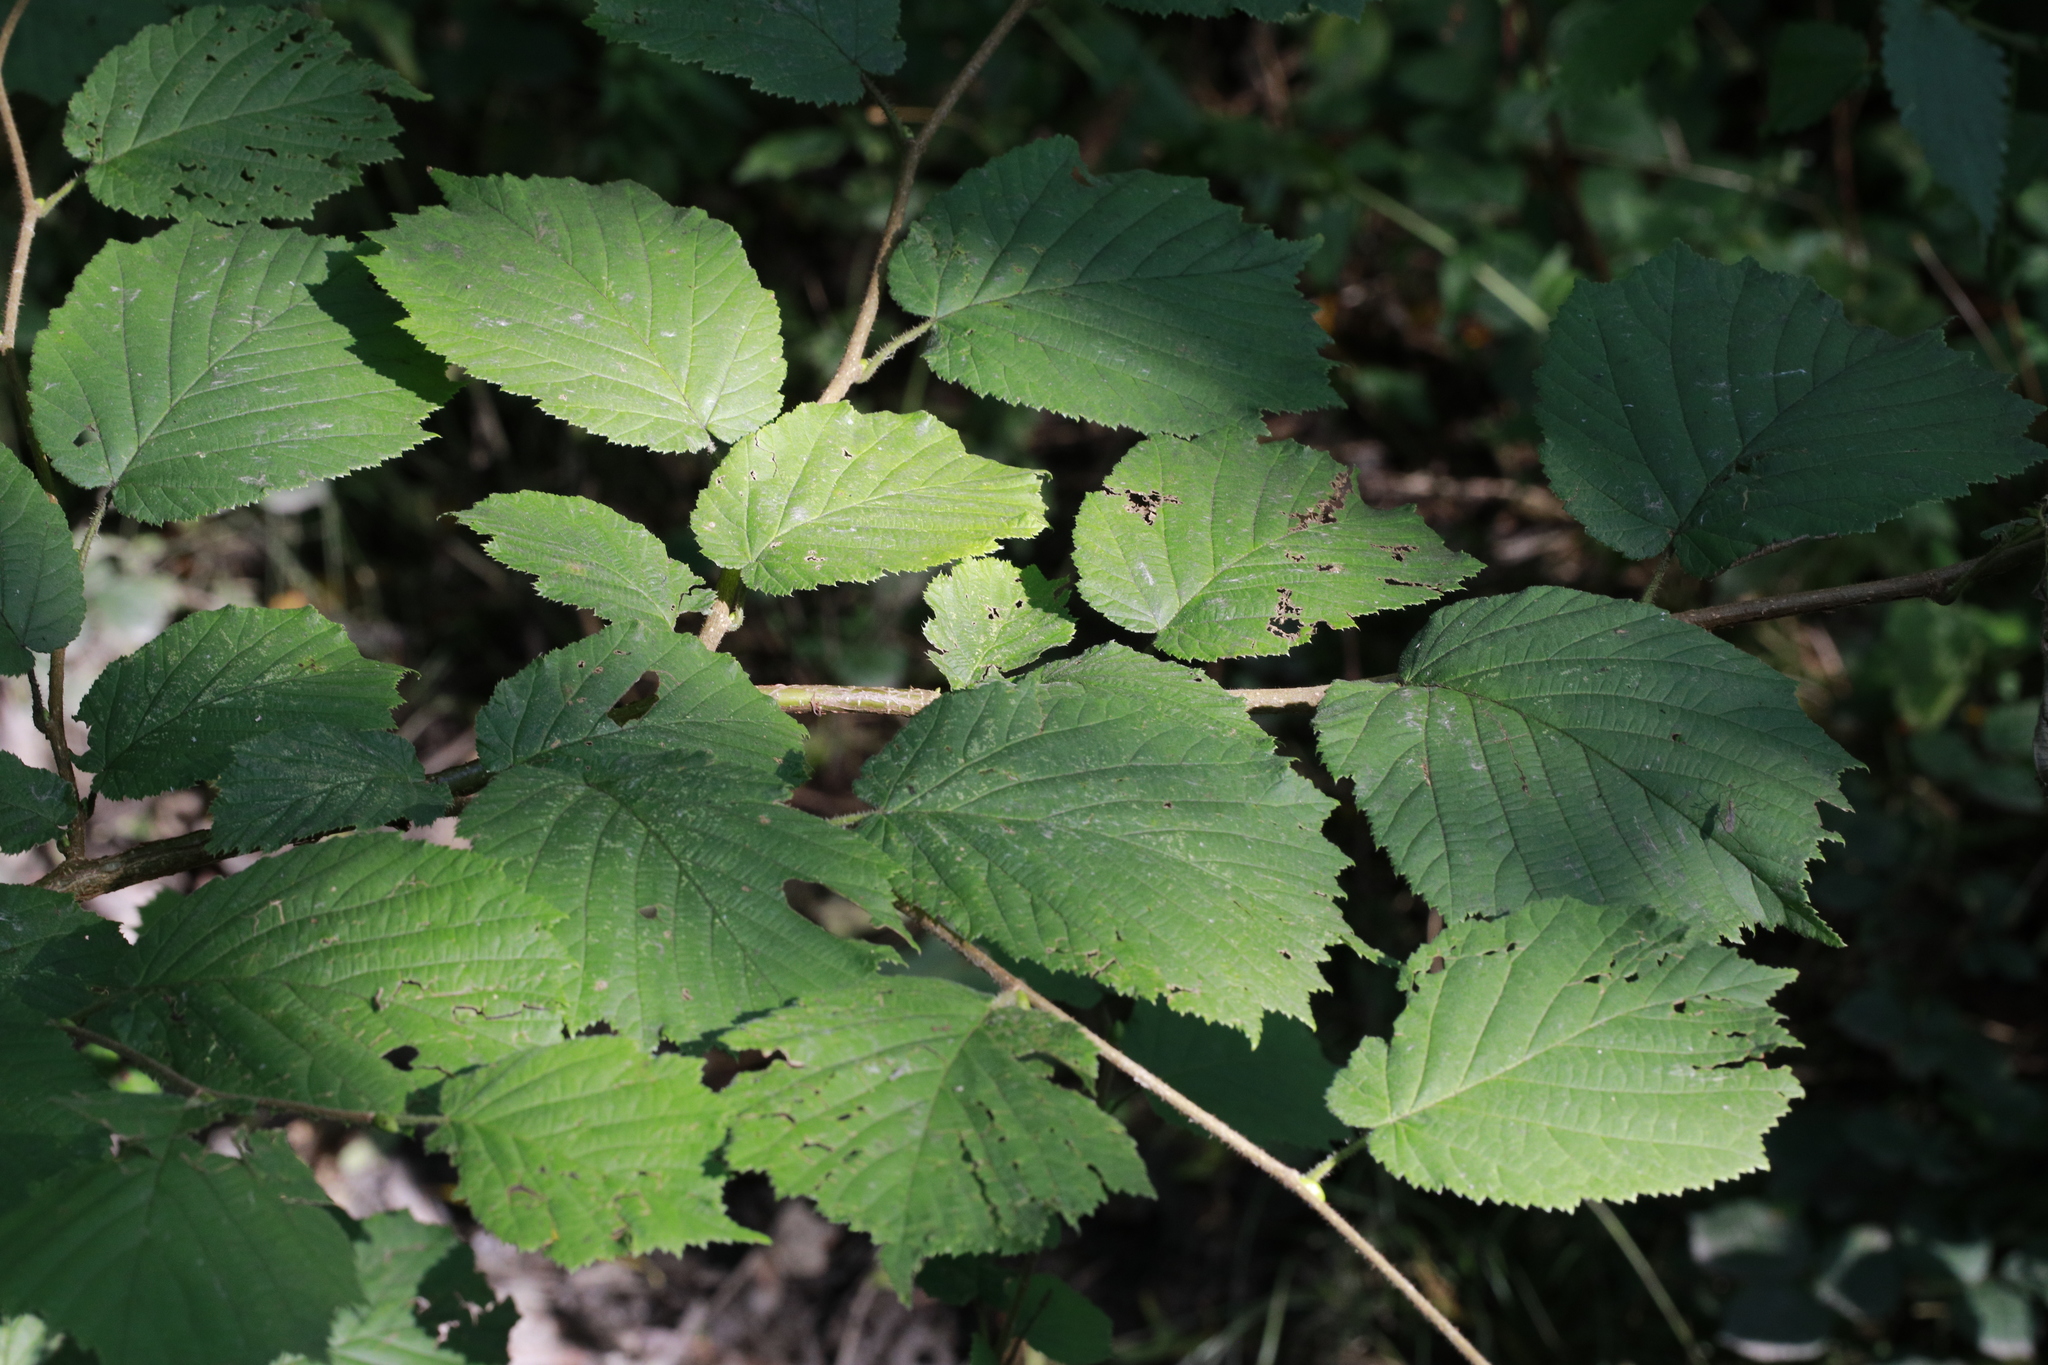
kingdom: Plantae
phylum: Tracheophyta
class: Magnoliopsida
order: Fagales
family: Betulaceae
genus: Corylus
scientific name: Corylus avellana
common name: European hazel
